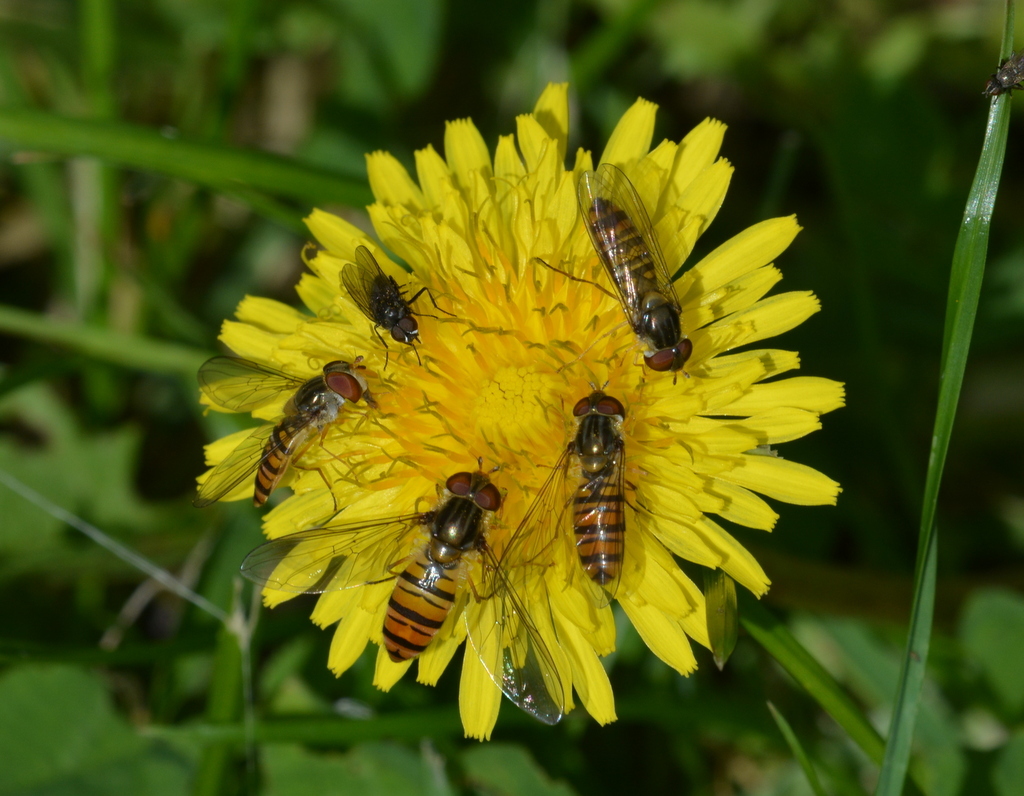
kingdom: Animalia
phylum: Arthropoda
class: Insecta
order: Diptera
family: Syrphidae
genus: Episyrphus
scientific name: Episyrphus balteatus
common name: Marmalade hoverfly
